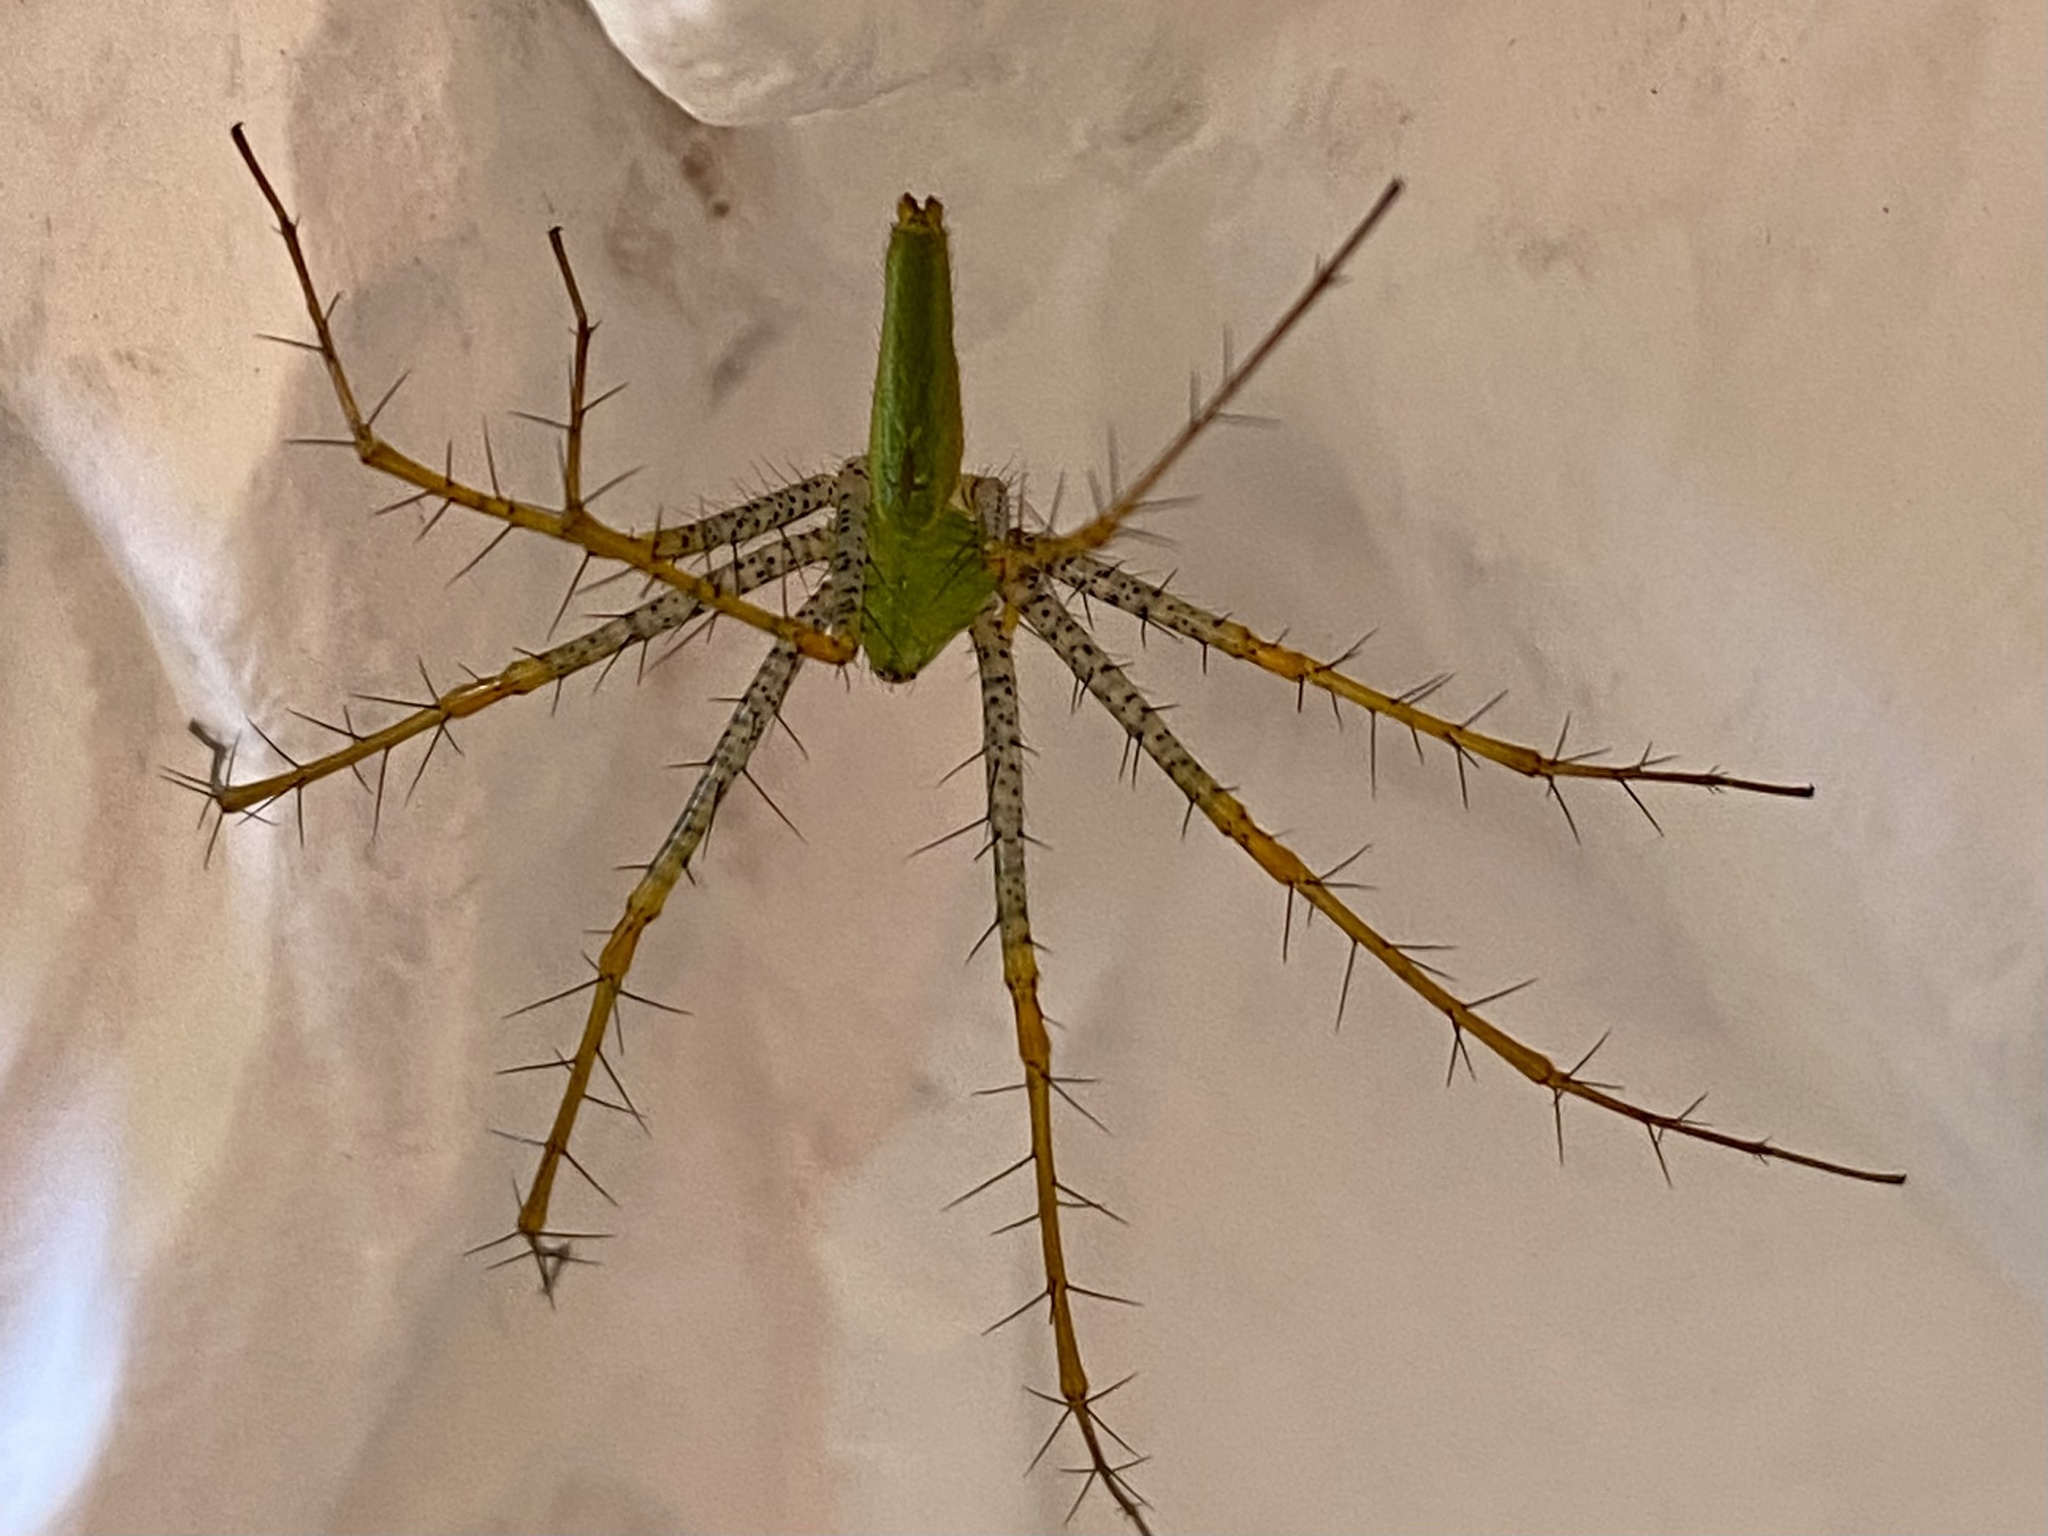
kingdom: Animalia
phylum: Arthropoda
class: Arachnida
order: Araneae
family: Oxyopidae
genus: Peucetia
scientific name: Peucetia viridans
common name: Lynx spiders
